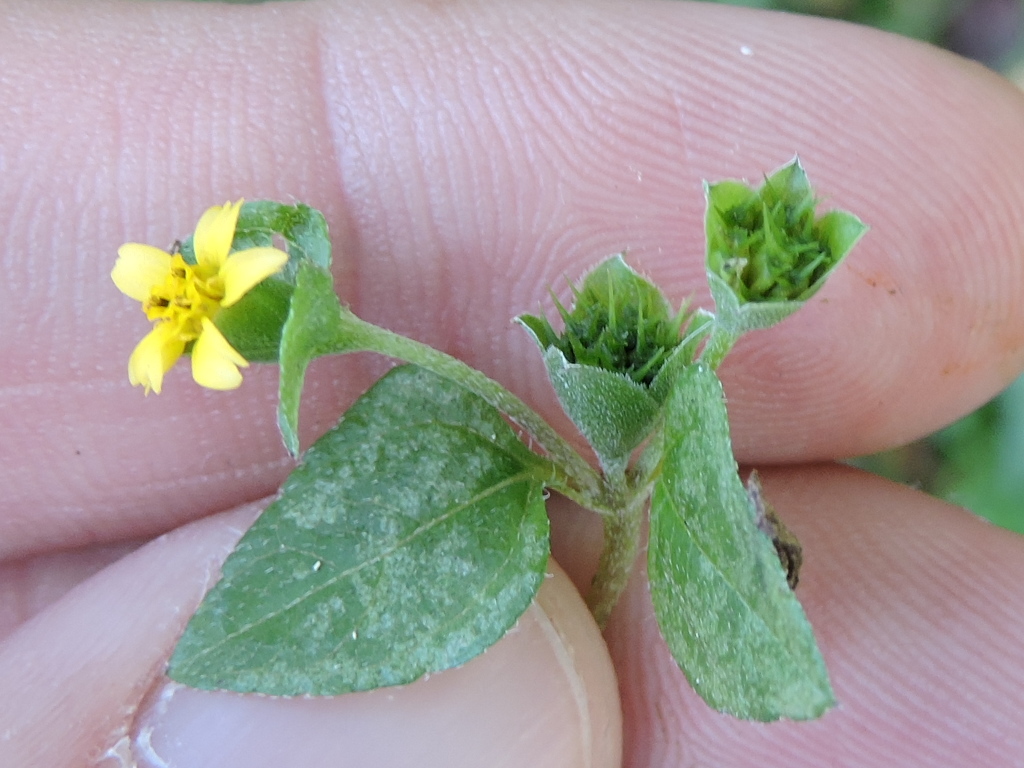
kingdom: Plantae
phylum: Tracheophyta
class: Magnoliopsida
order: Asterales
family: Asteraceae
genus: Calyptocarpus
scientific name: Calyptocarpus vialis
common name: Straggler daisy
